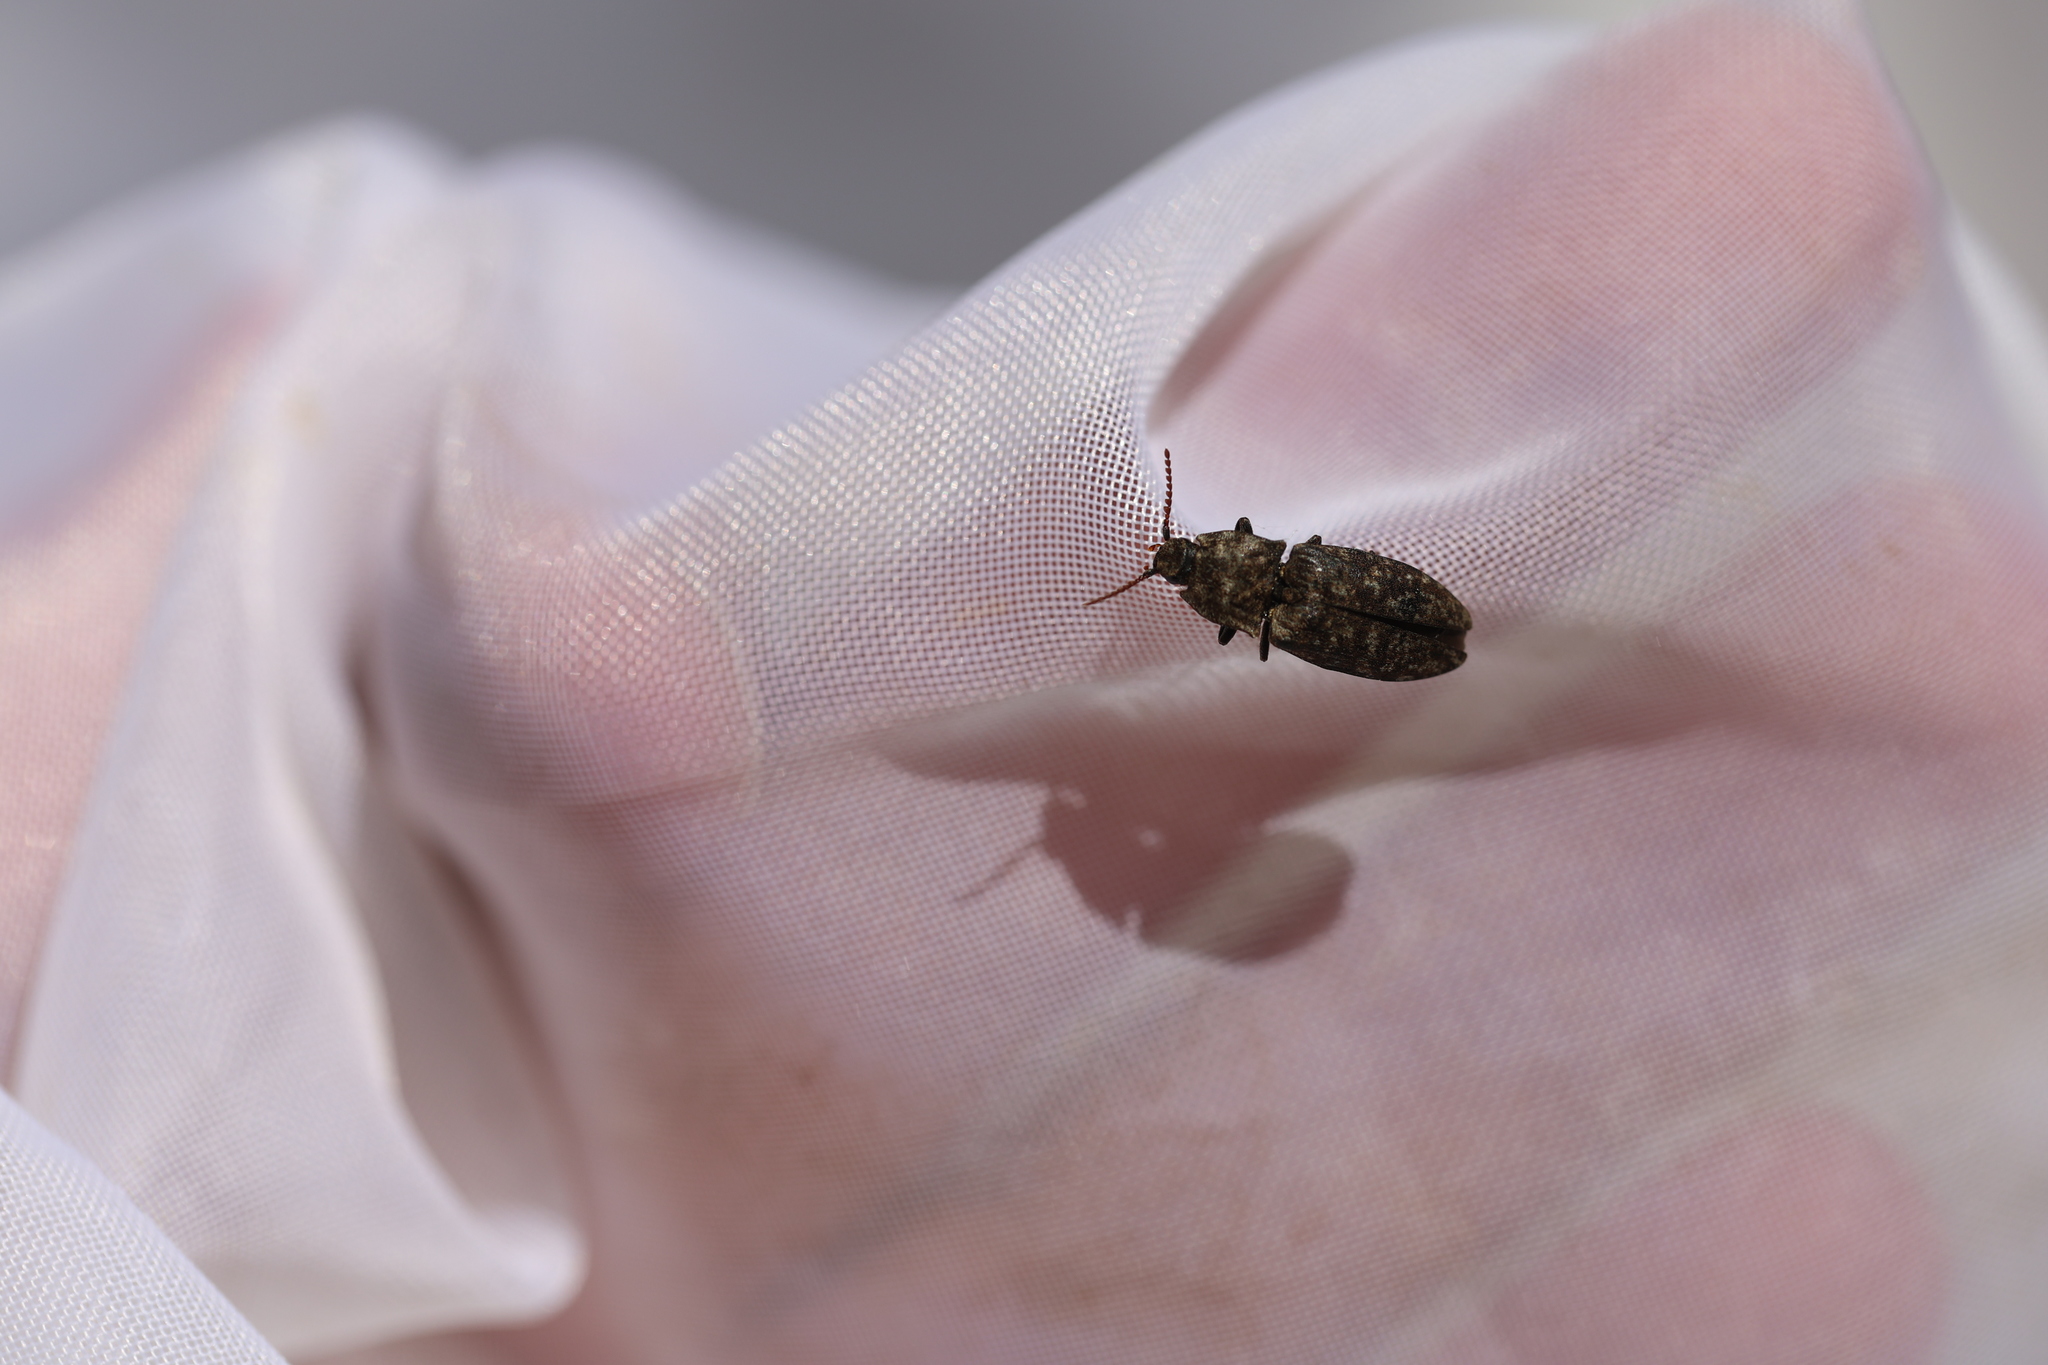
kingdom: Animalia
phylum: Arthropoda
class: Insecta
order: Coleoptera
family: Elateridae
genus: Agrypnus
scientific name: Agrypnus murinus
